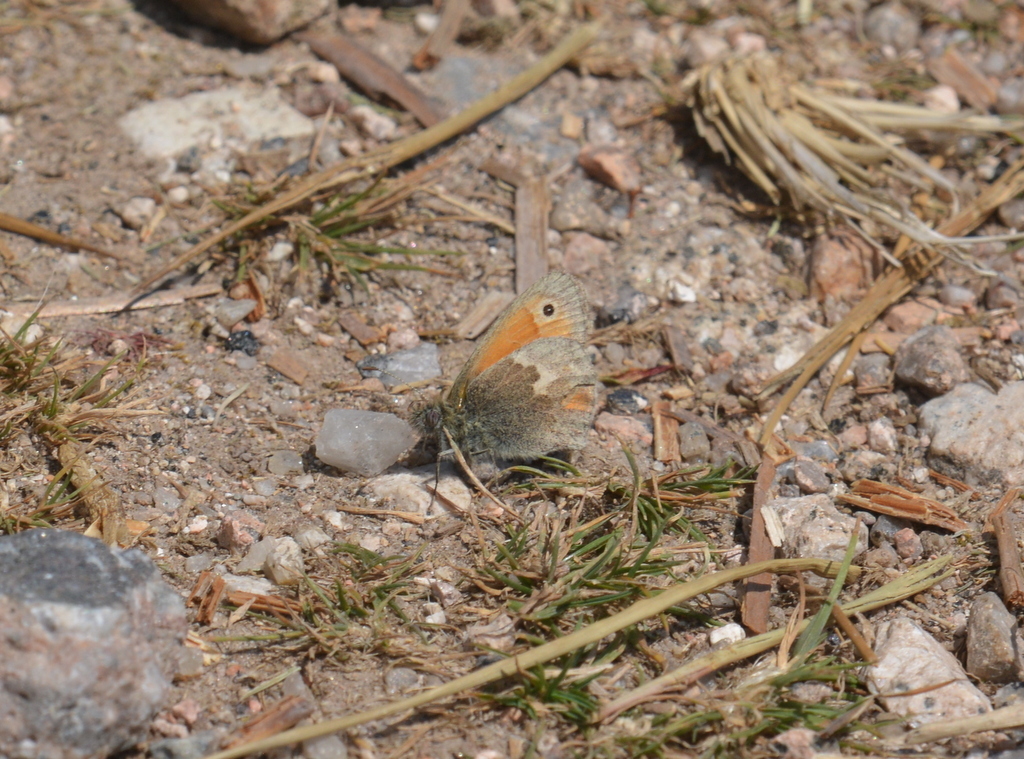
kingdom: Animalia
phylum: Arthropoda
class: Insecta
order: Lepidoptera
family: Nymphalidae
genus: Coenonympha
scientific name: Coenonympha pamphilus
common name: Small heath
